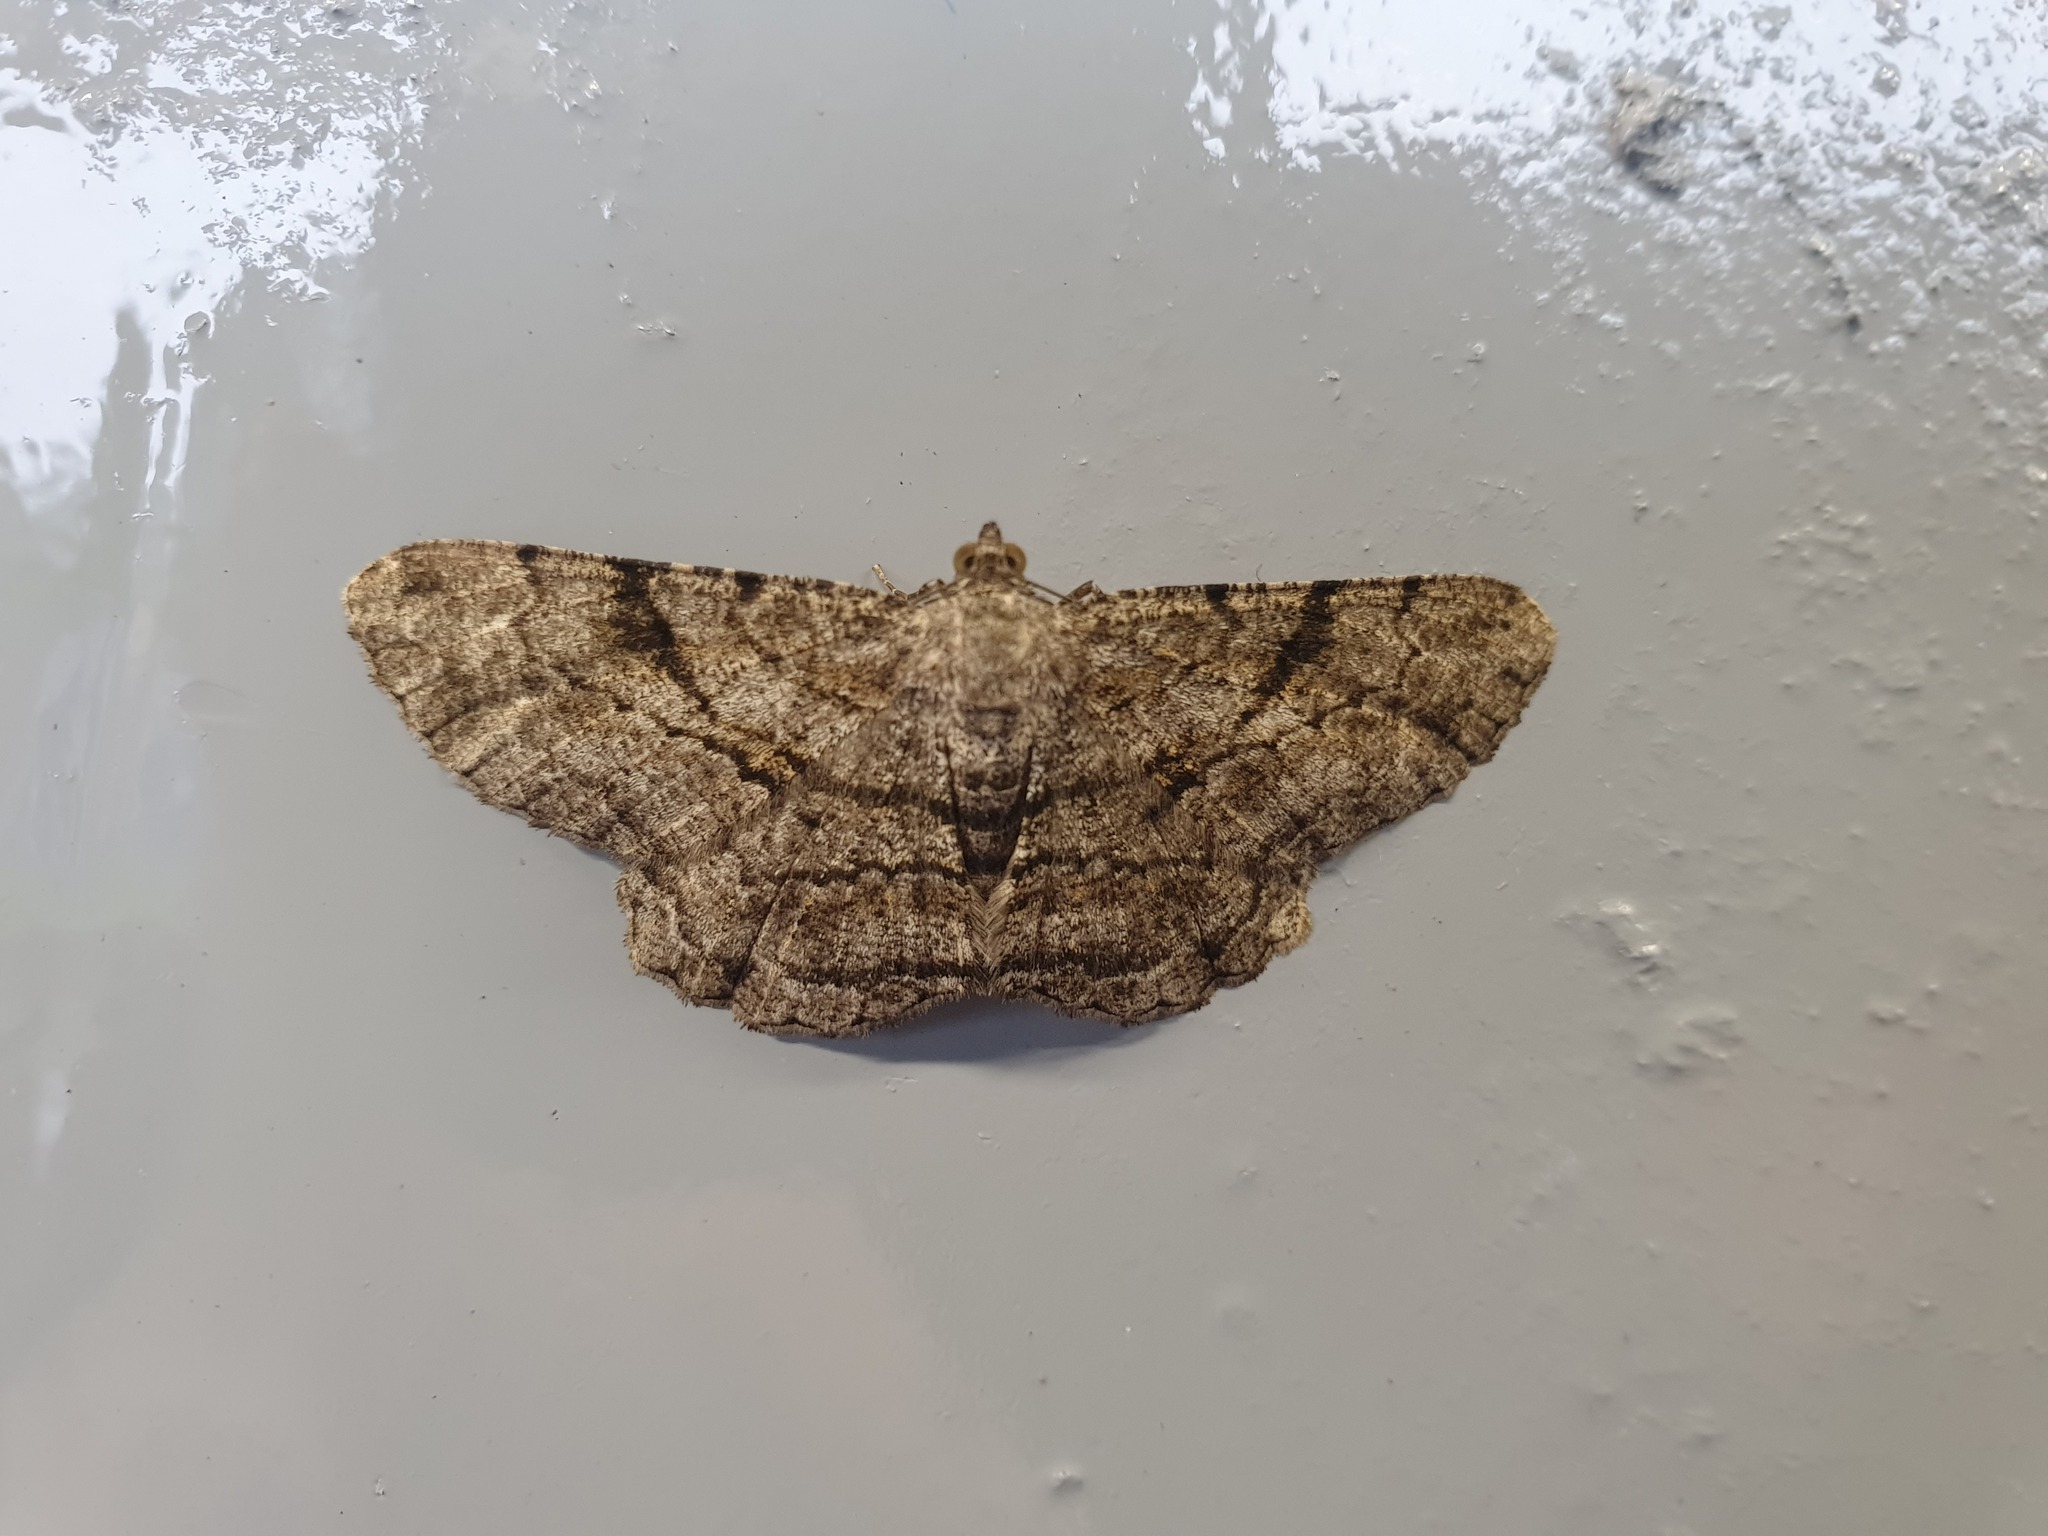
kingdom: Animalia
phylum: Arthropoda
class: Insecta
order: Lepidoptera
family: Geometridae
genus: Peribatodes
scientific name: Peribatodes rhomboidaria
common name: Willow beauty
